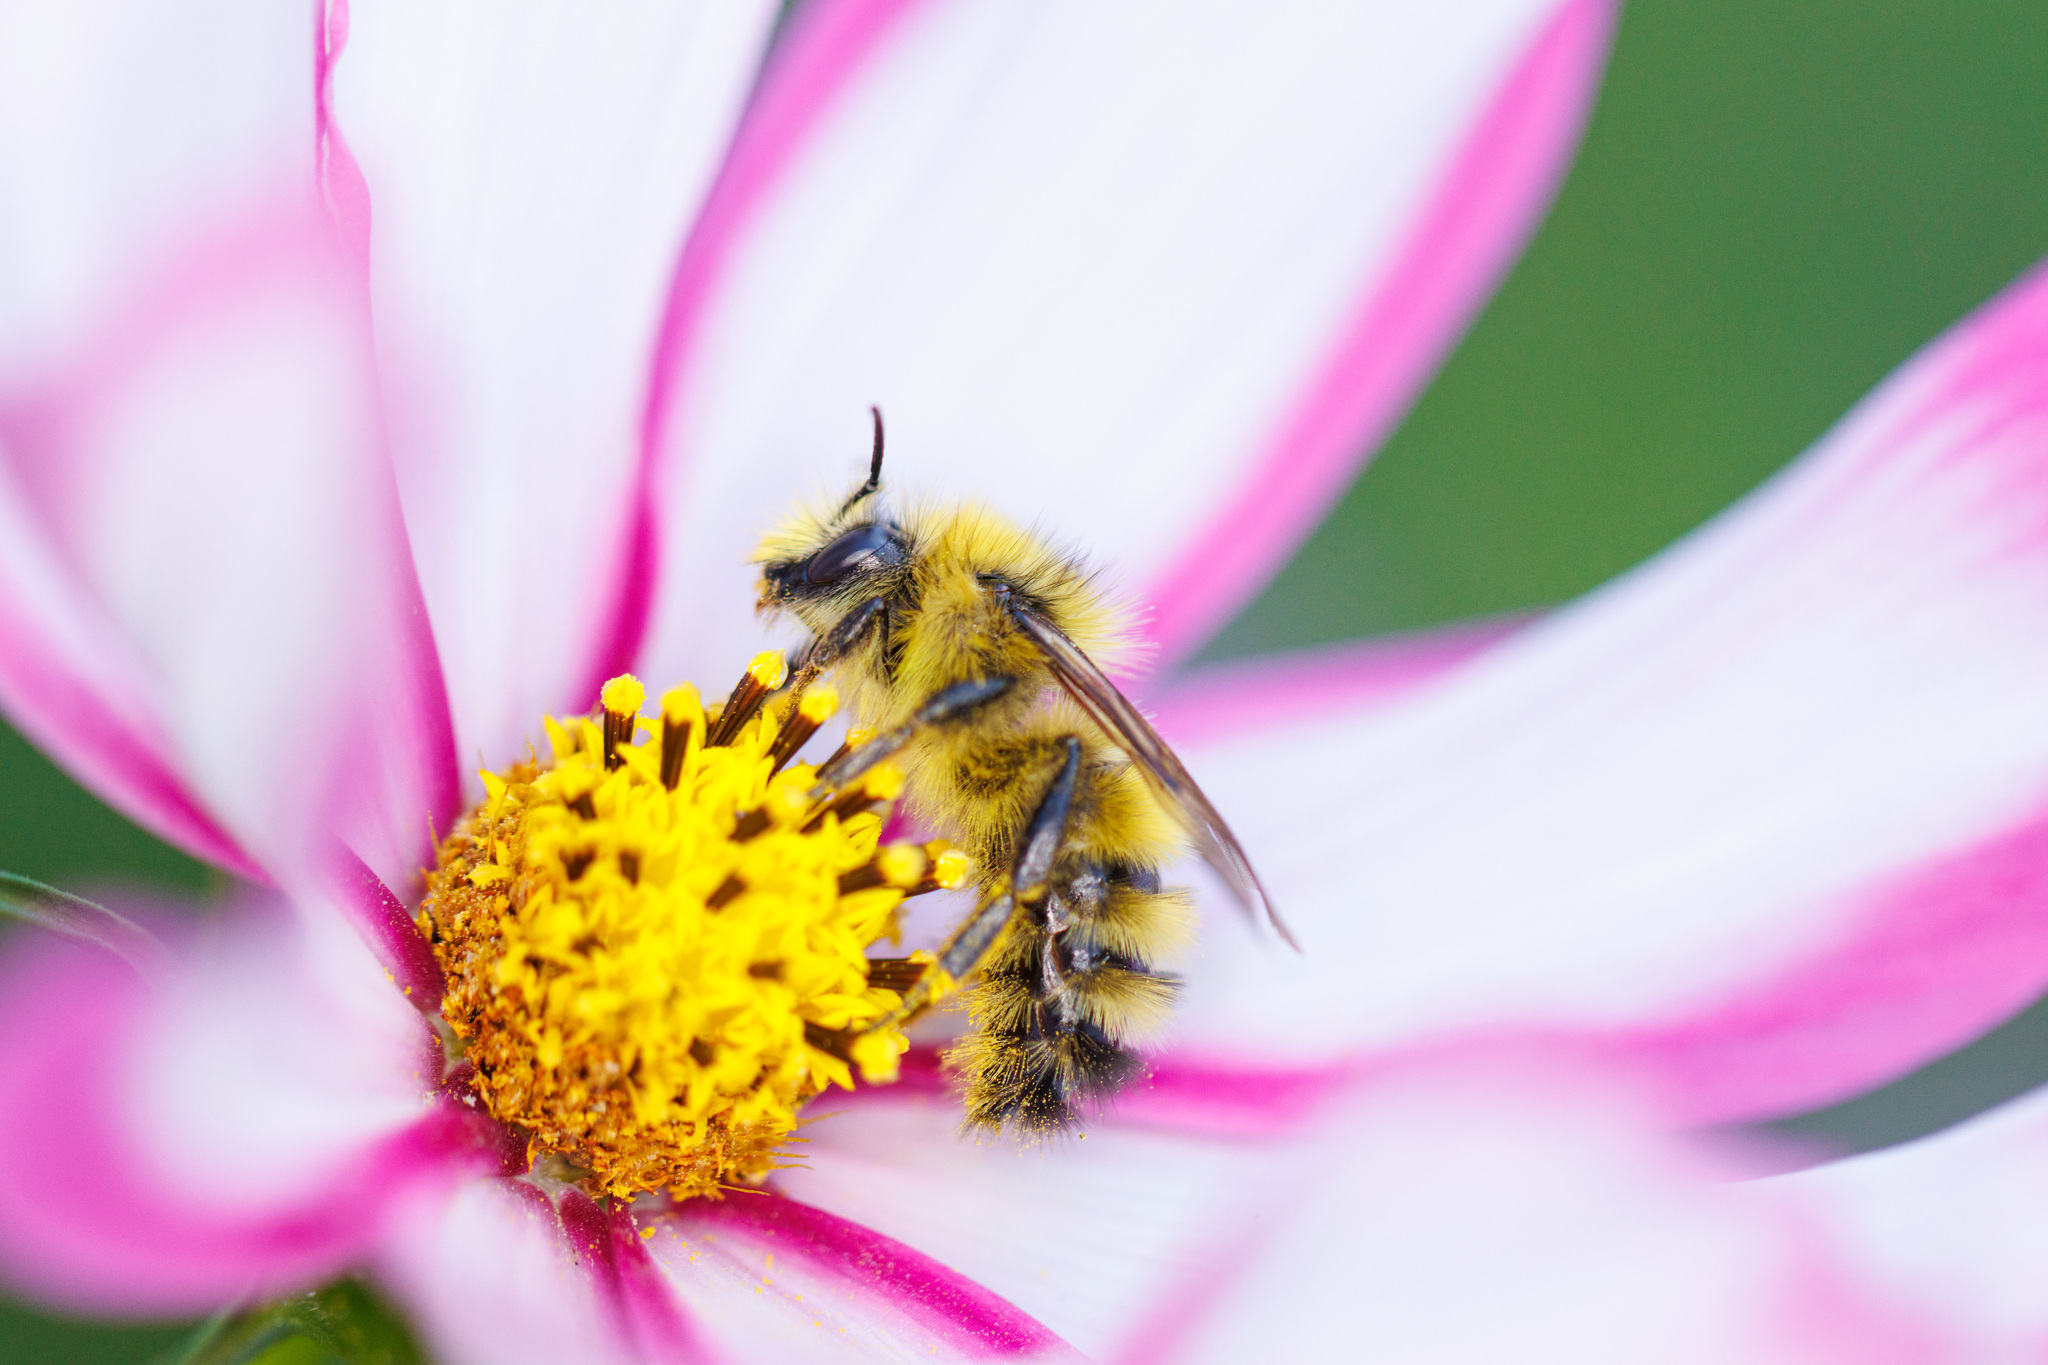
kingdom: Animalia
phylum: Arthropoda
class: Insecta
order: Hymenoptera
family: Apidae
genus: Bombus
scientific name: Bombus flavifrons
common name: Yellow head bumble bee
